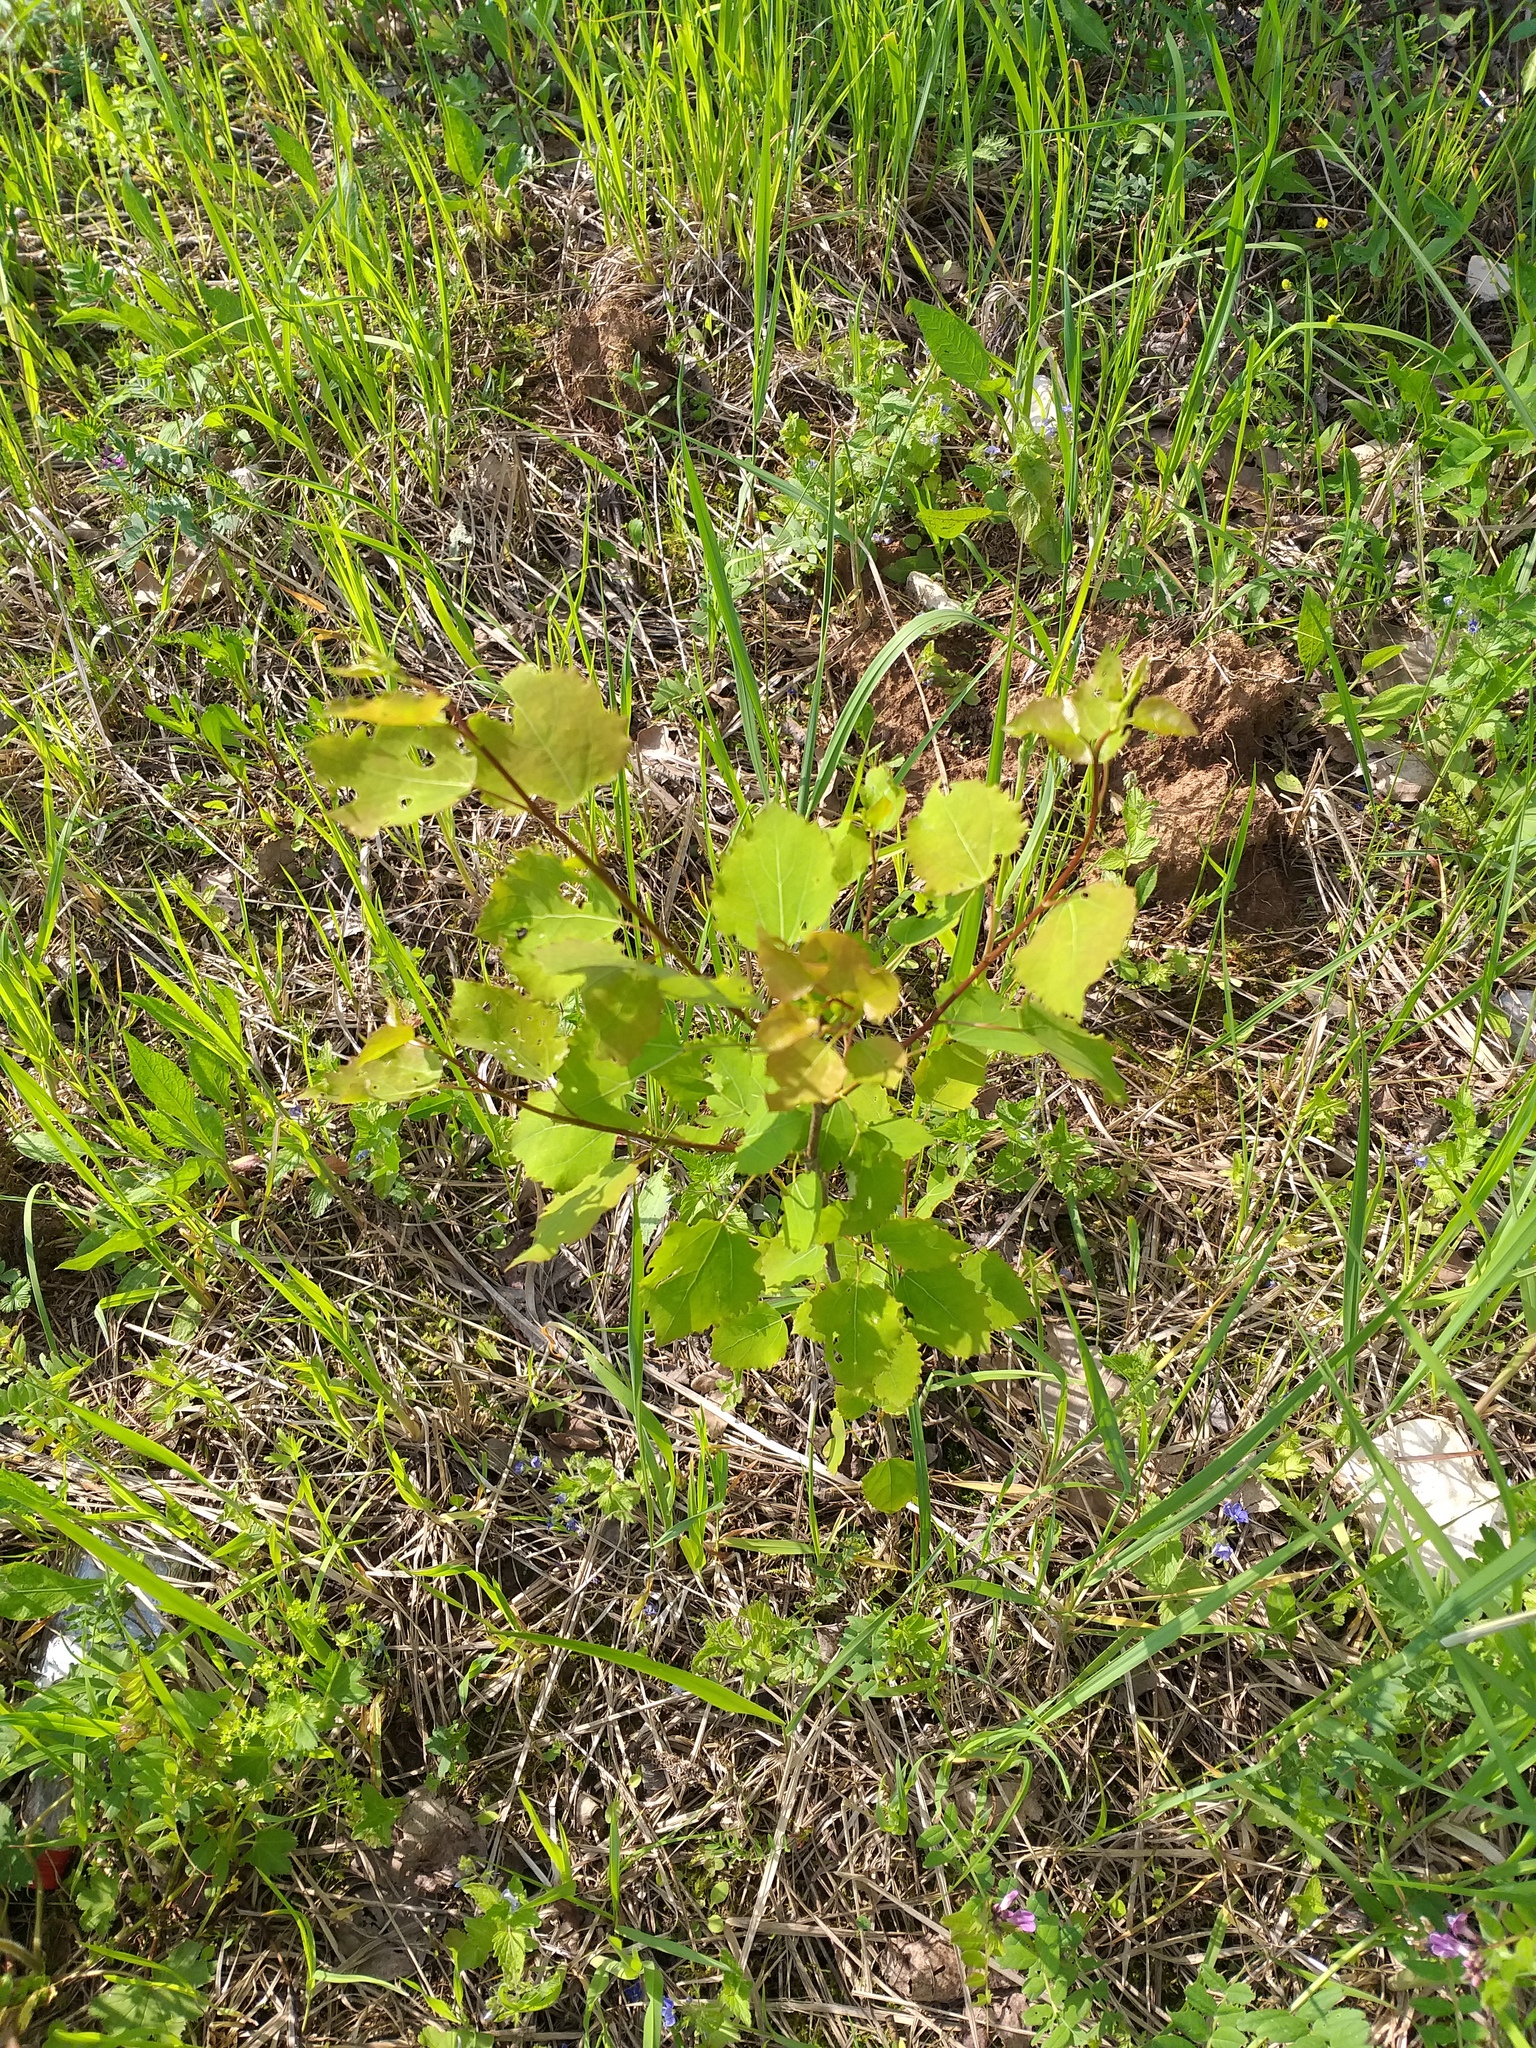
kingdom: Plantae
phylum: Tracheophyta
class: Magnoliopsida
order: Malpighiales
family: Salicaceae
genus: Populus
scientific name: Populus tremula
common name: European aspen
